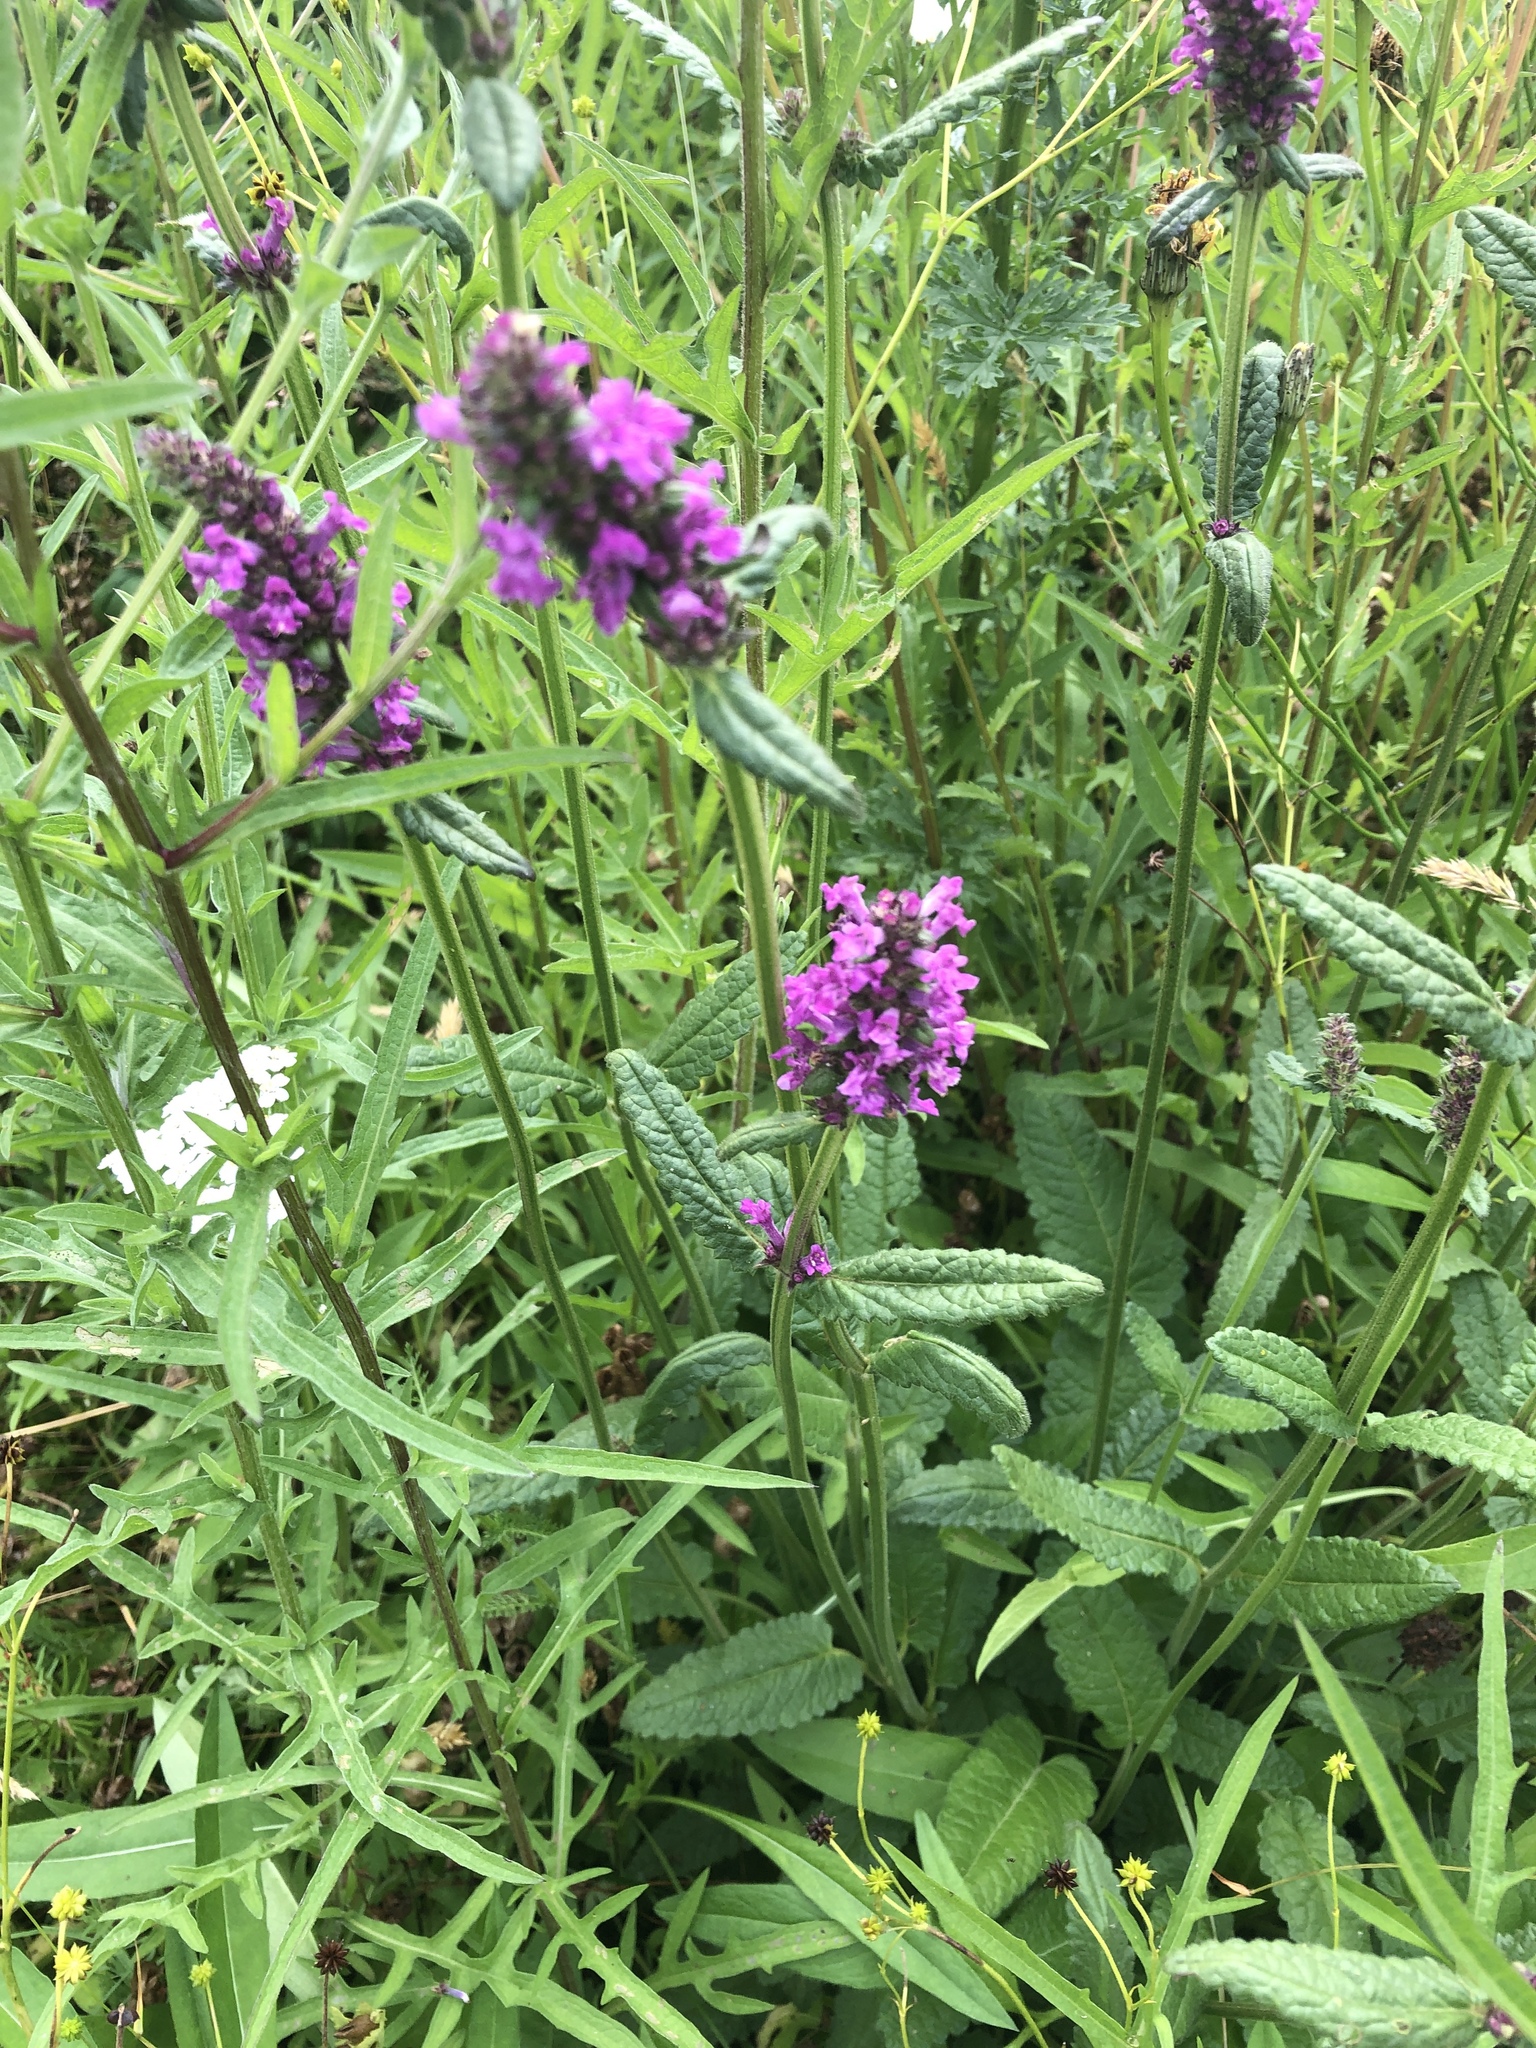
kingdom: Plantae
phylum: Tracheophyta
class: Magnoliopsida
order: Lamiales
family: Lamiaceae
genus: Betonica
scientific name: Betonica officinalis
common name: Bishop's-wort
